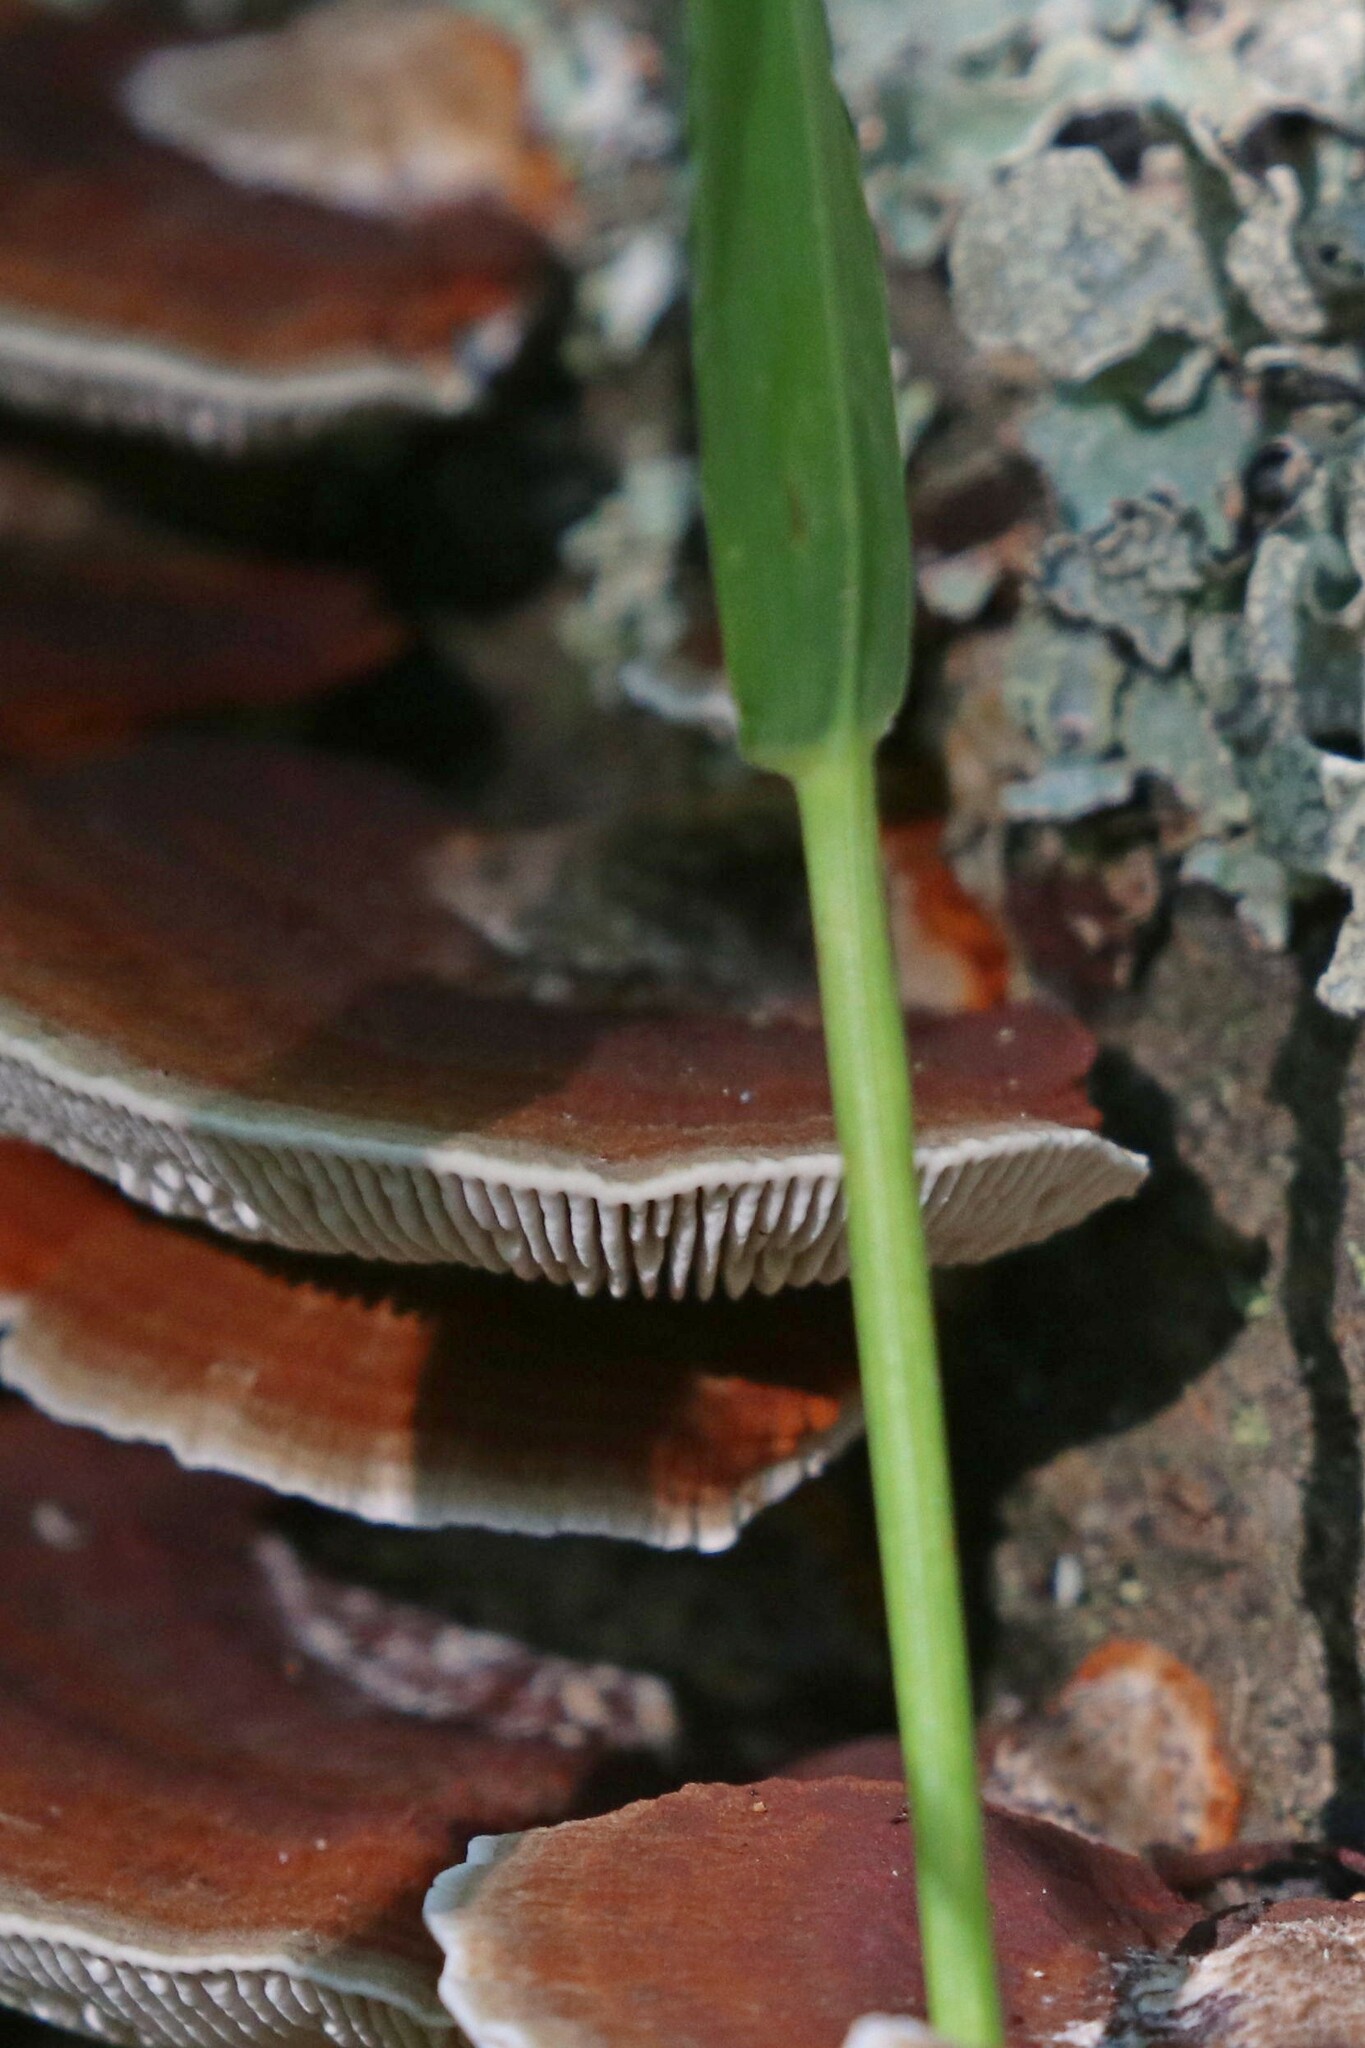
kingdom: Fungi
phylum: Basidiomycota
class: Agaricomycetes
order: Polyporales
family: Polyporaceae
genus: Daedaleopsis
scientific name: Daedaleopsis tricolor
